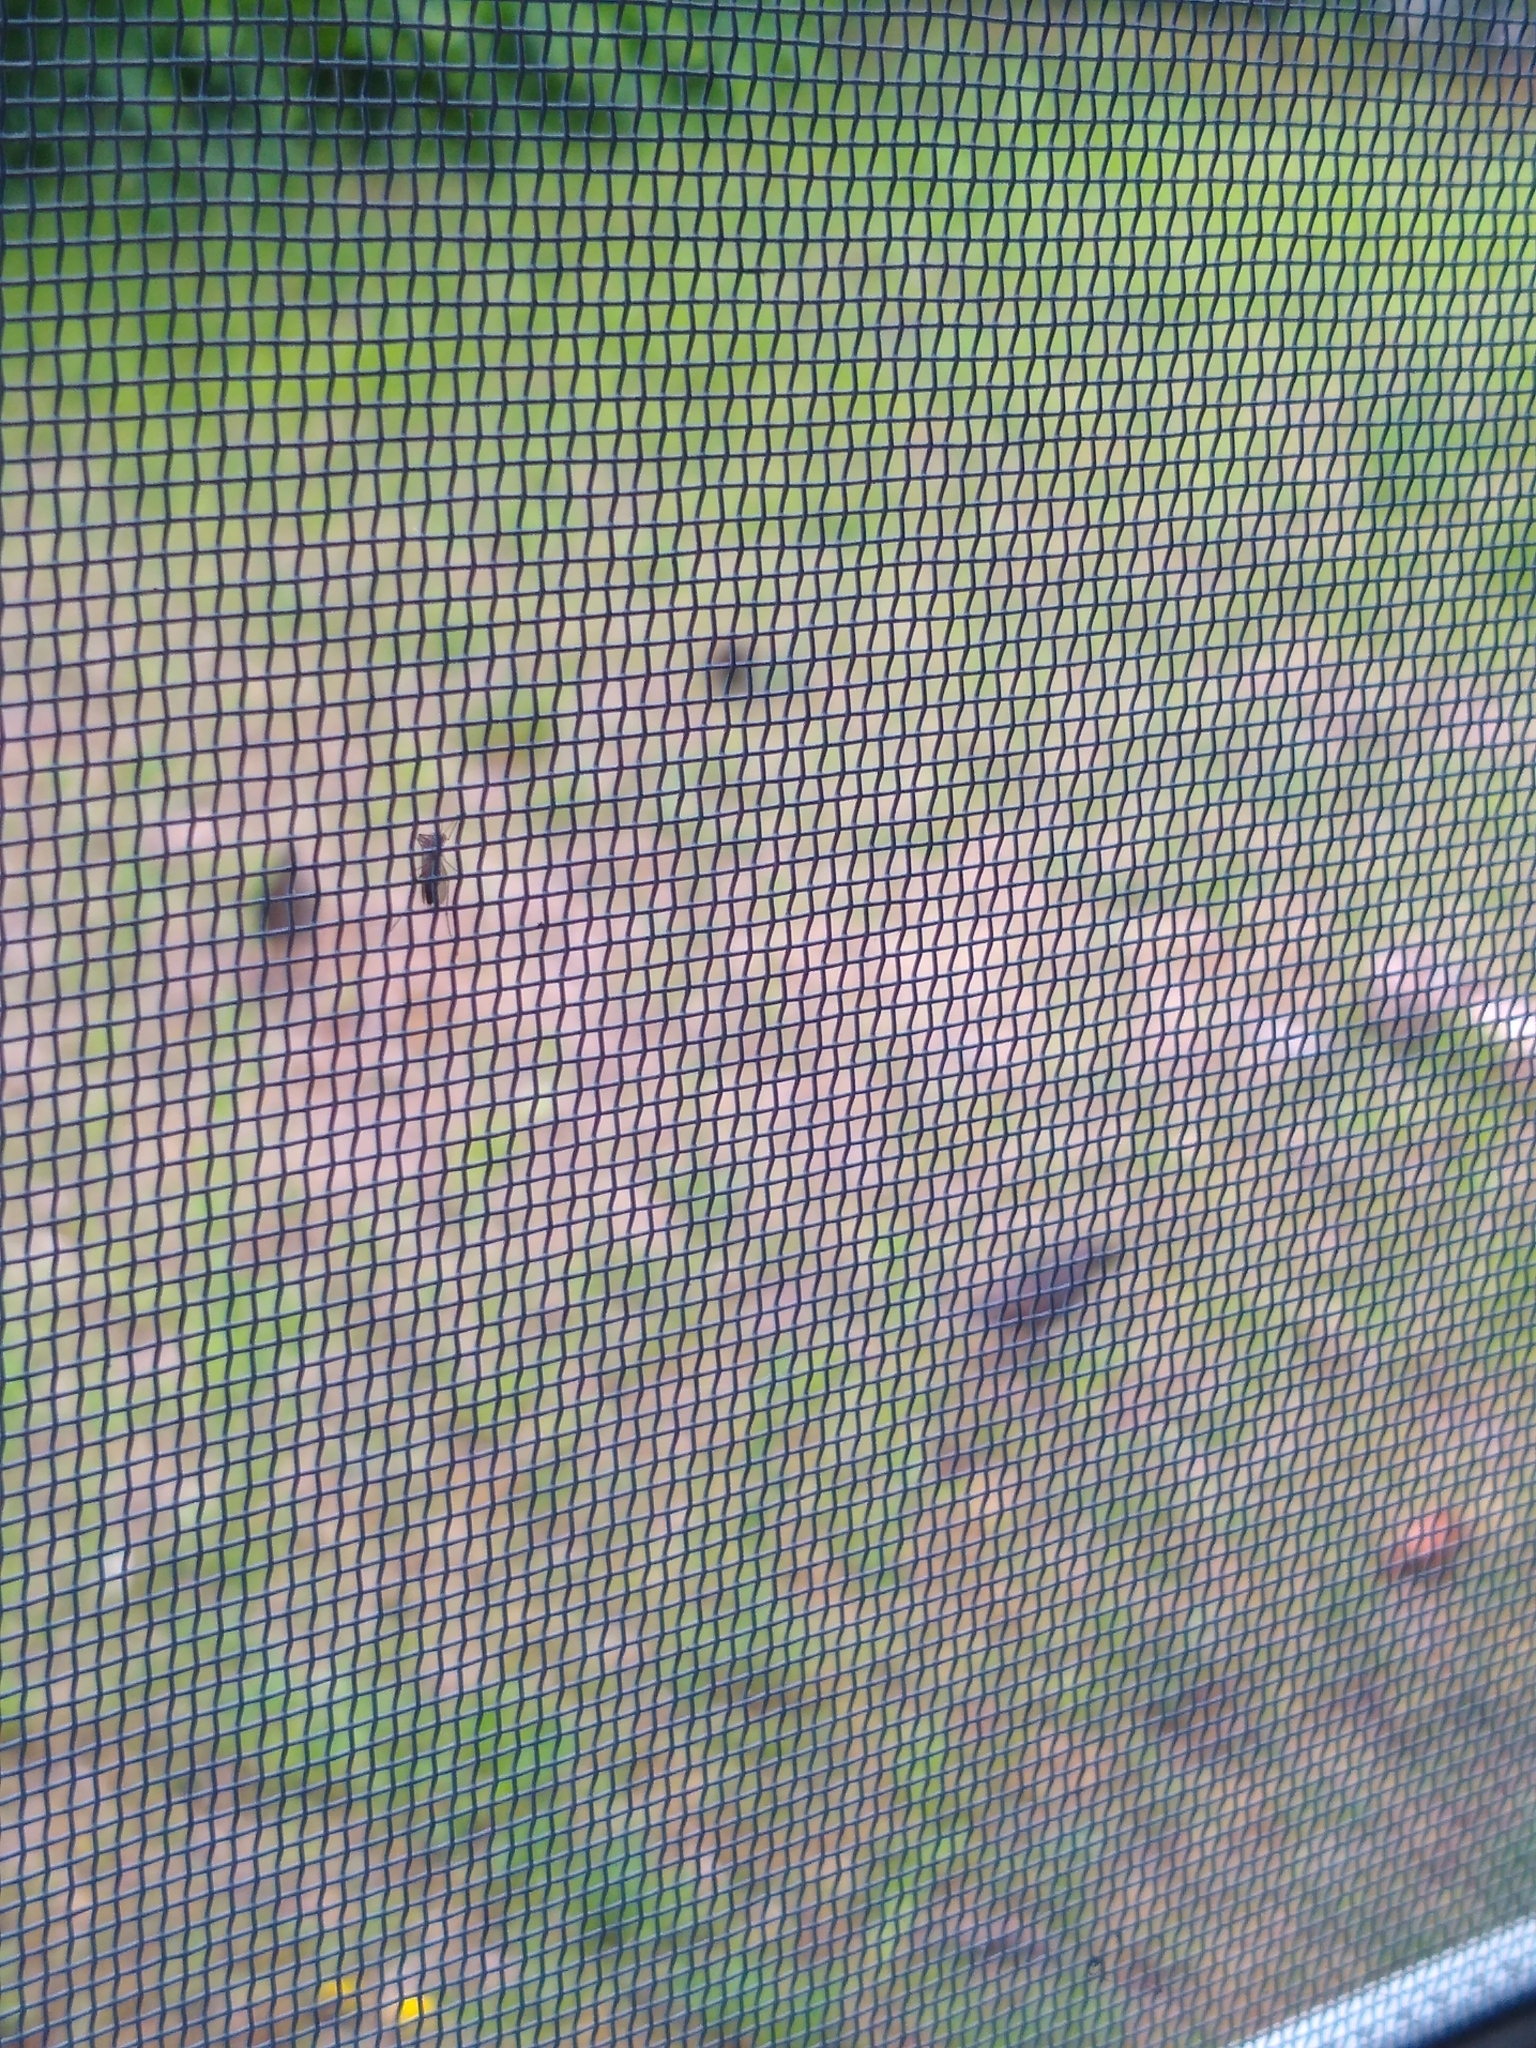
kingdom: Animalia
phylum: Chordata
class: Aves
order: Passeriformes
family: Sturnidae
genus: Sturnus
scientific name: Sturnus vulgaris
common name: Common starling
